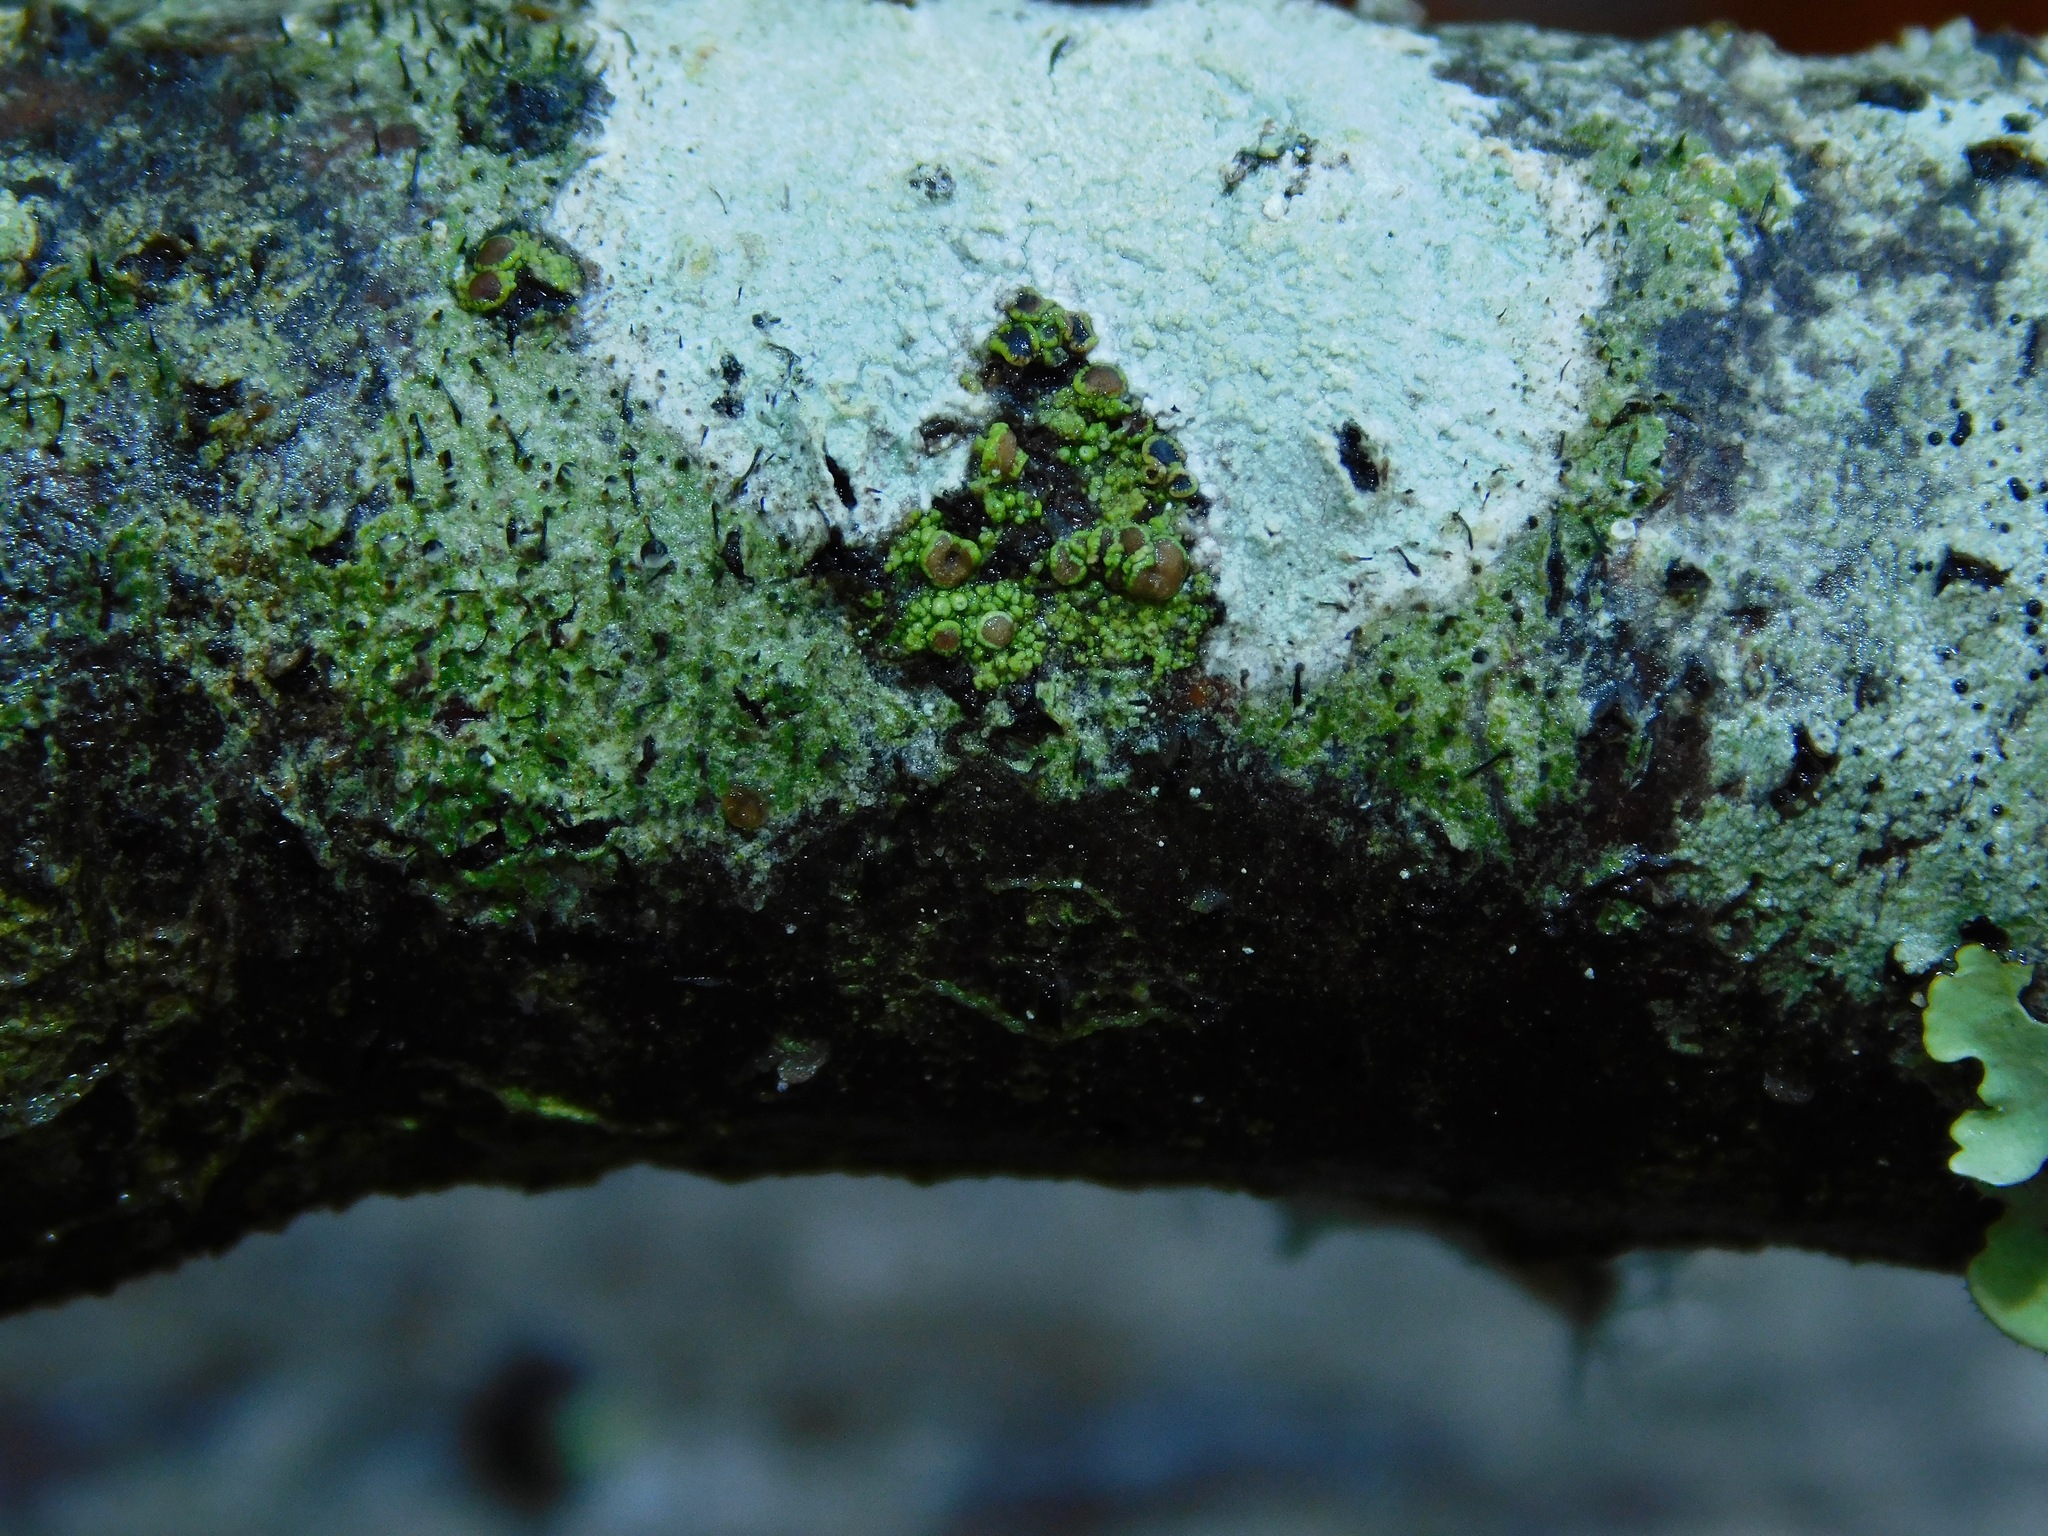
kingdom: Fungi
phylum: Ascomycota
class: Lecanoromycetes
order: Umbilicariales
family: Fuscideaceae
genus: Maronea
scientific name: Maronea polyphaea
